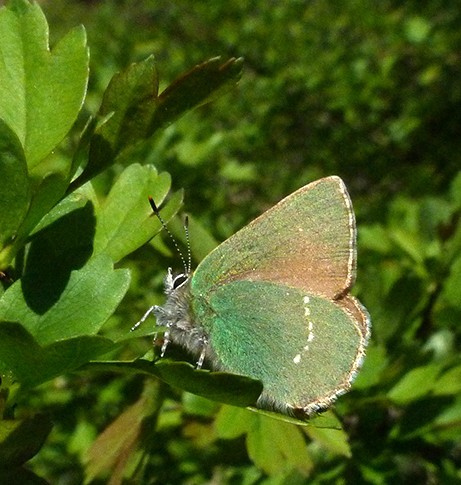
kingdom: Animalia
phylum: Arthropoda
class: Insecta
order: Lepidoptera
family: Lycaenidae
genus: Callophrys
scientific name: Callophrys rubi
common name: Green hairstreak
